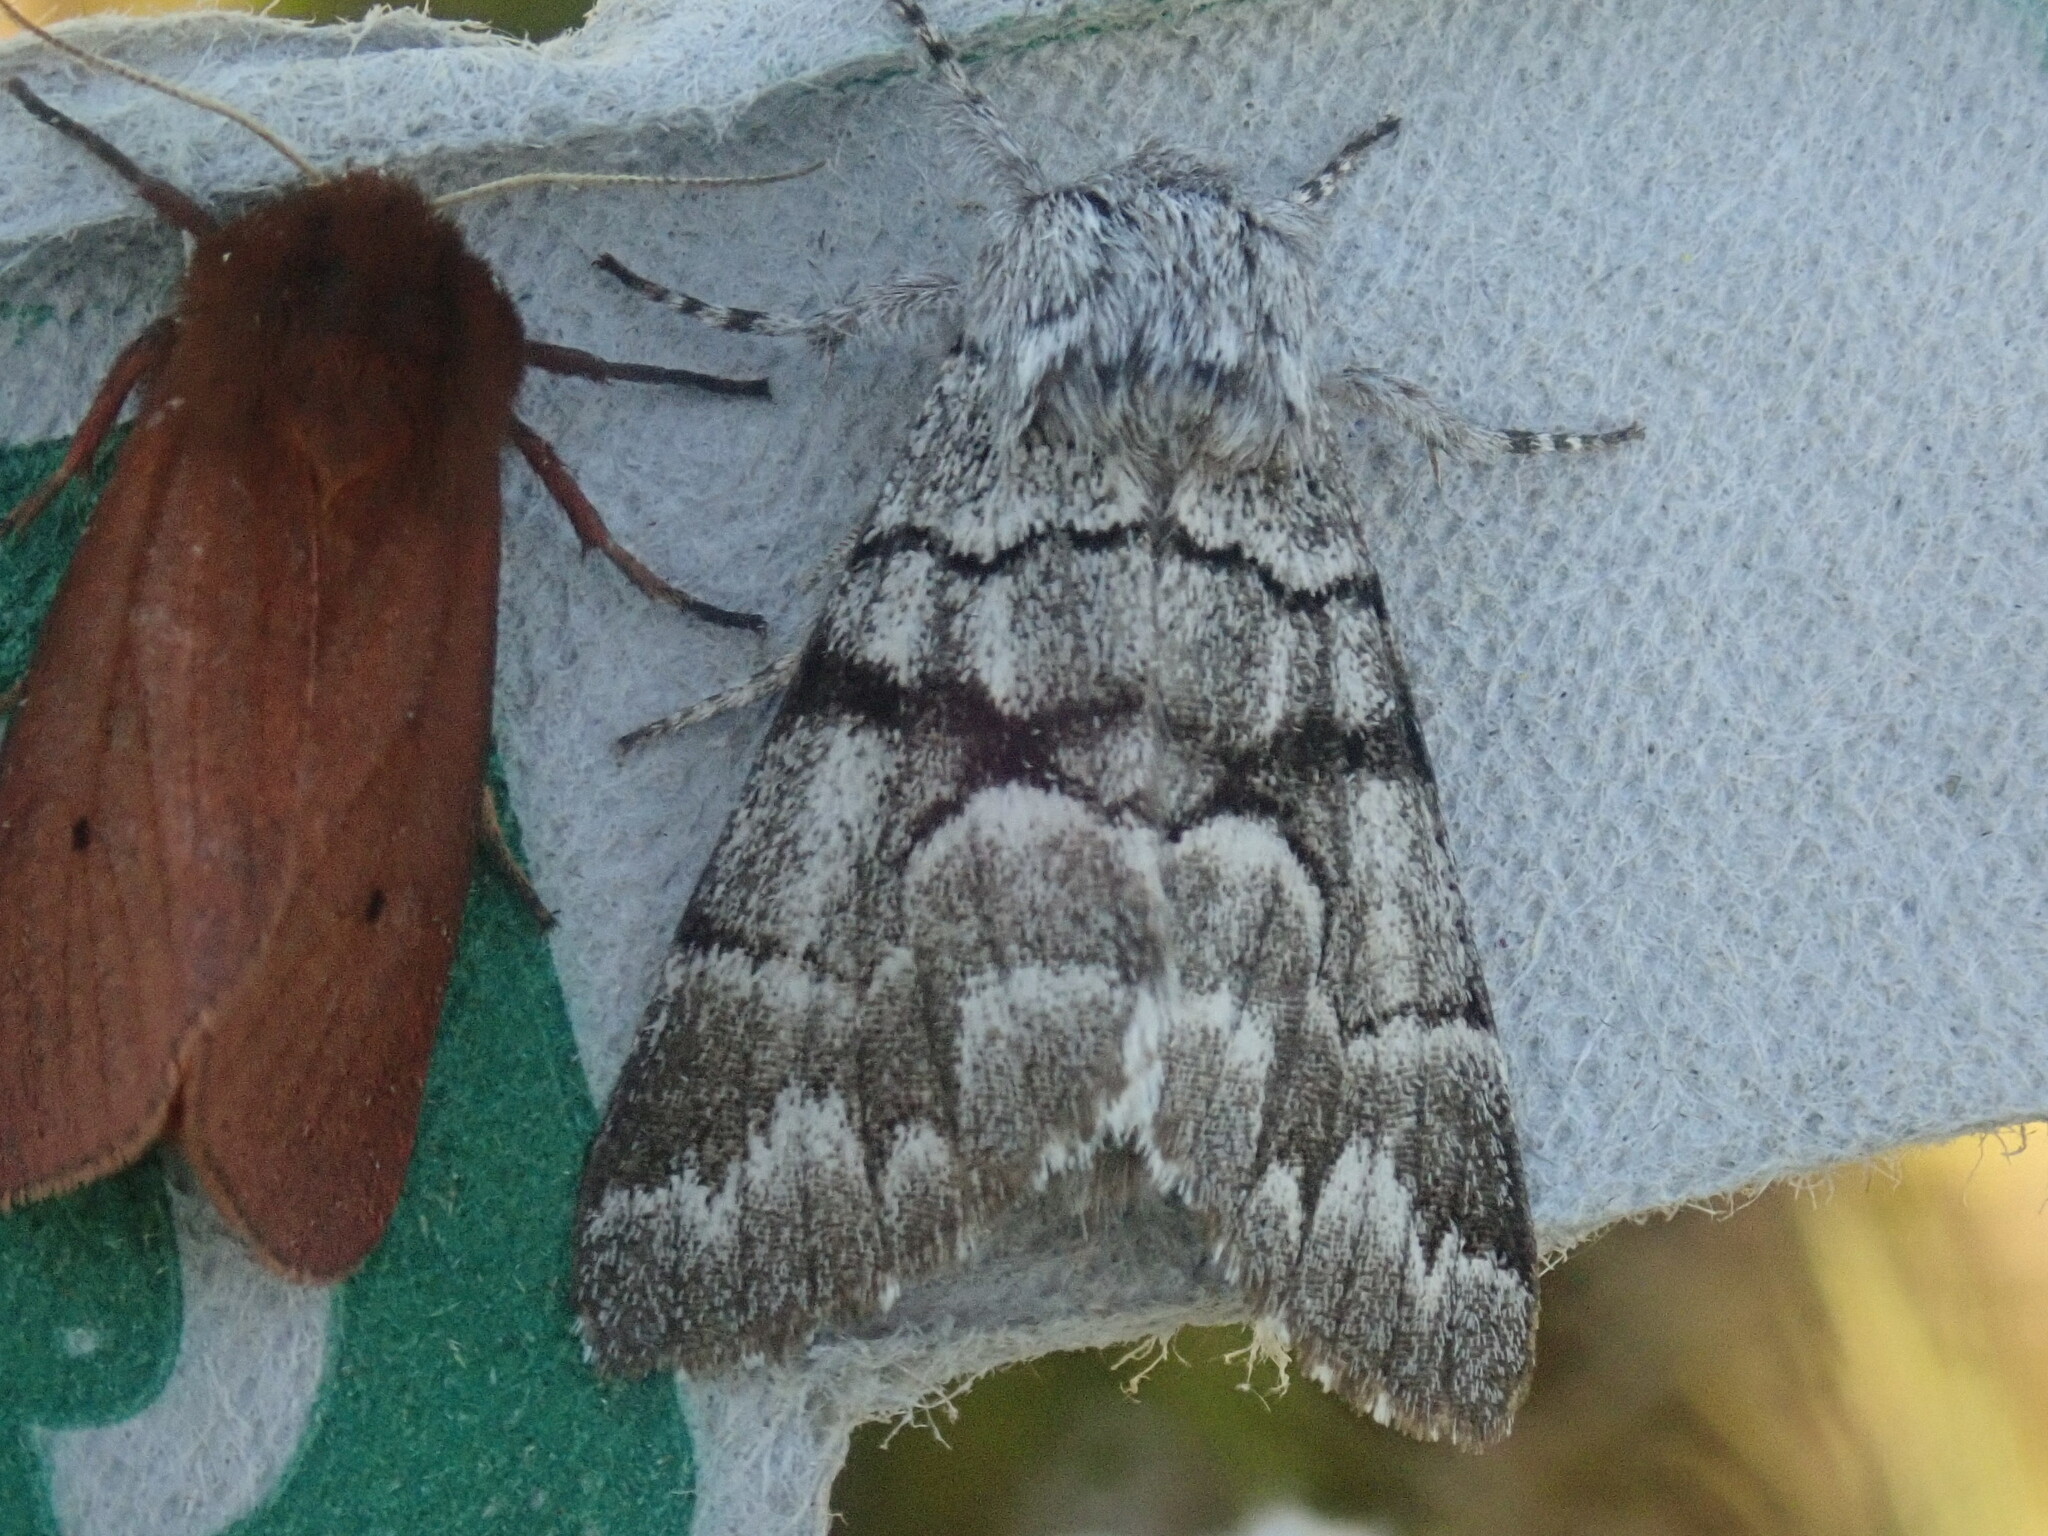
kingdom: Animalia
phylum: Arthropoda
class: Insecta
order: Lepidoptera
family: Noctuidae
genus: Panthea
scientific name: Panthea furcilla
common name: Eastern panthea moth
